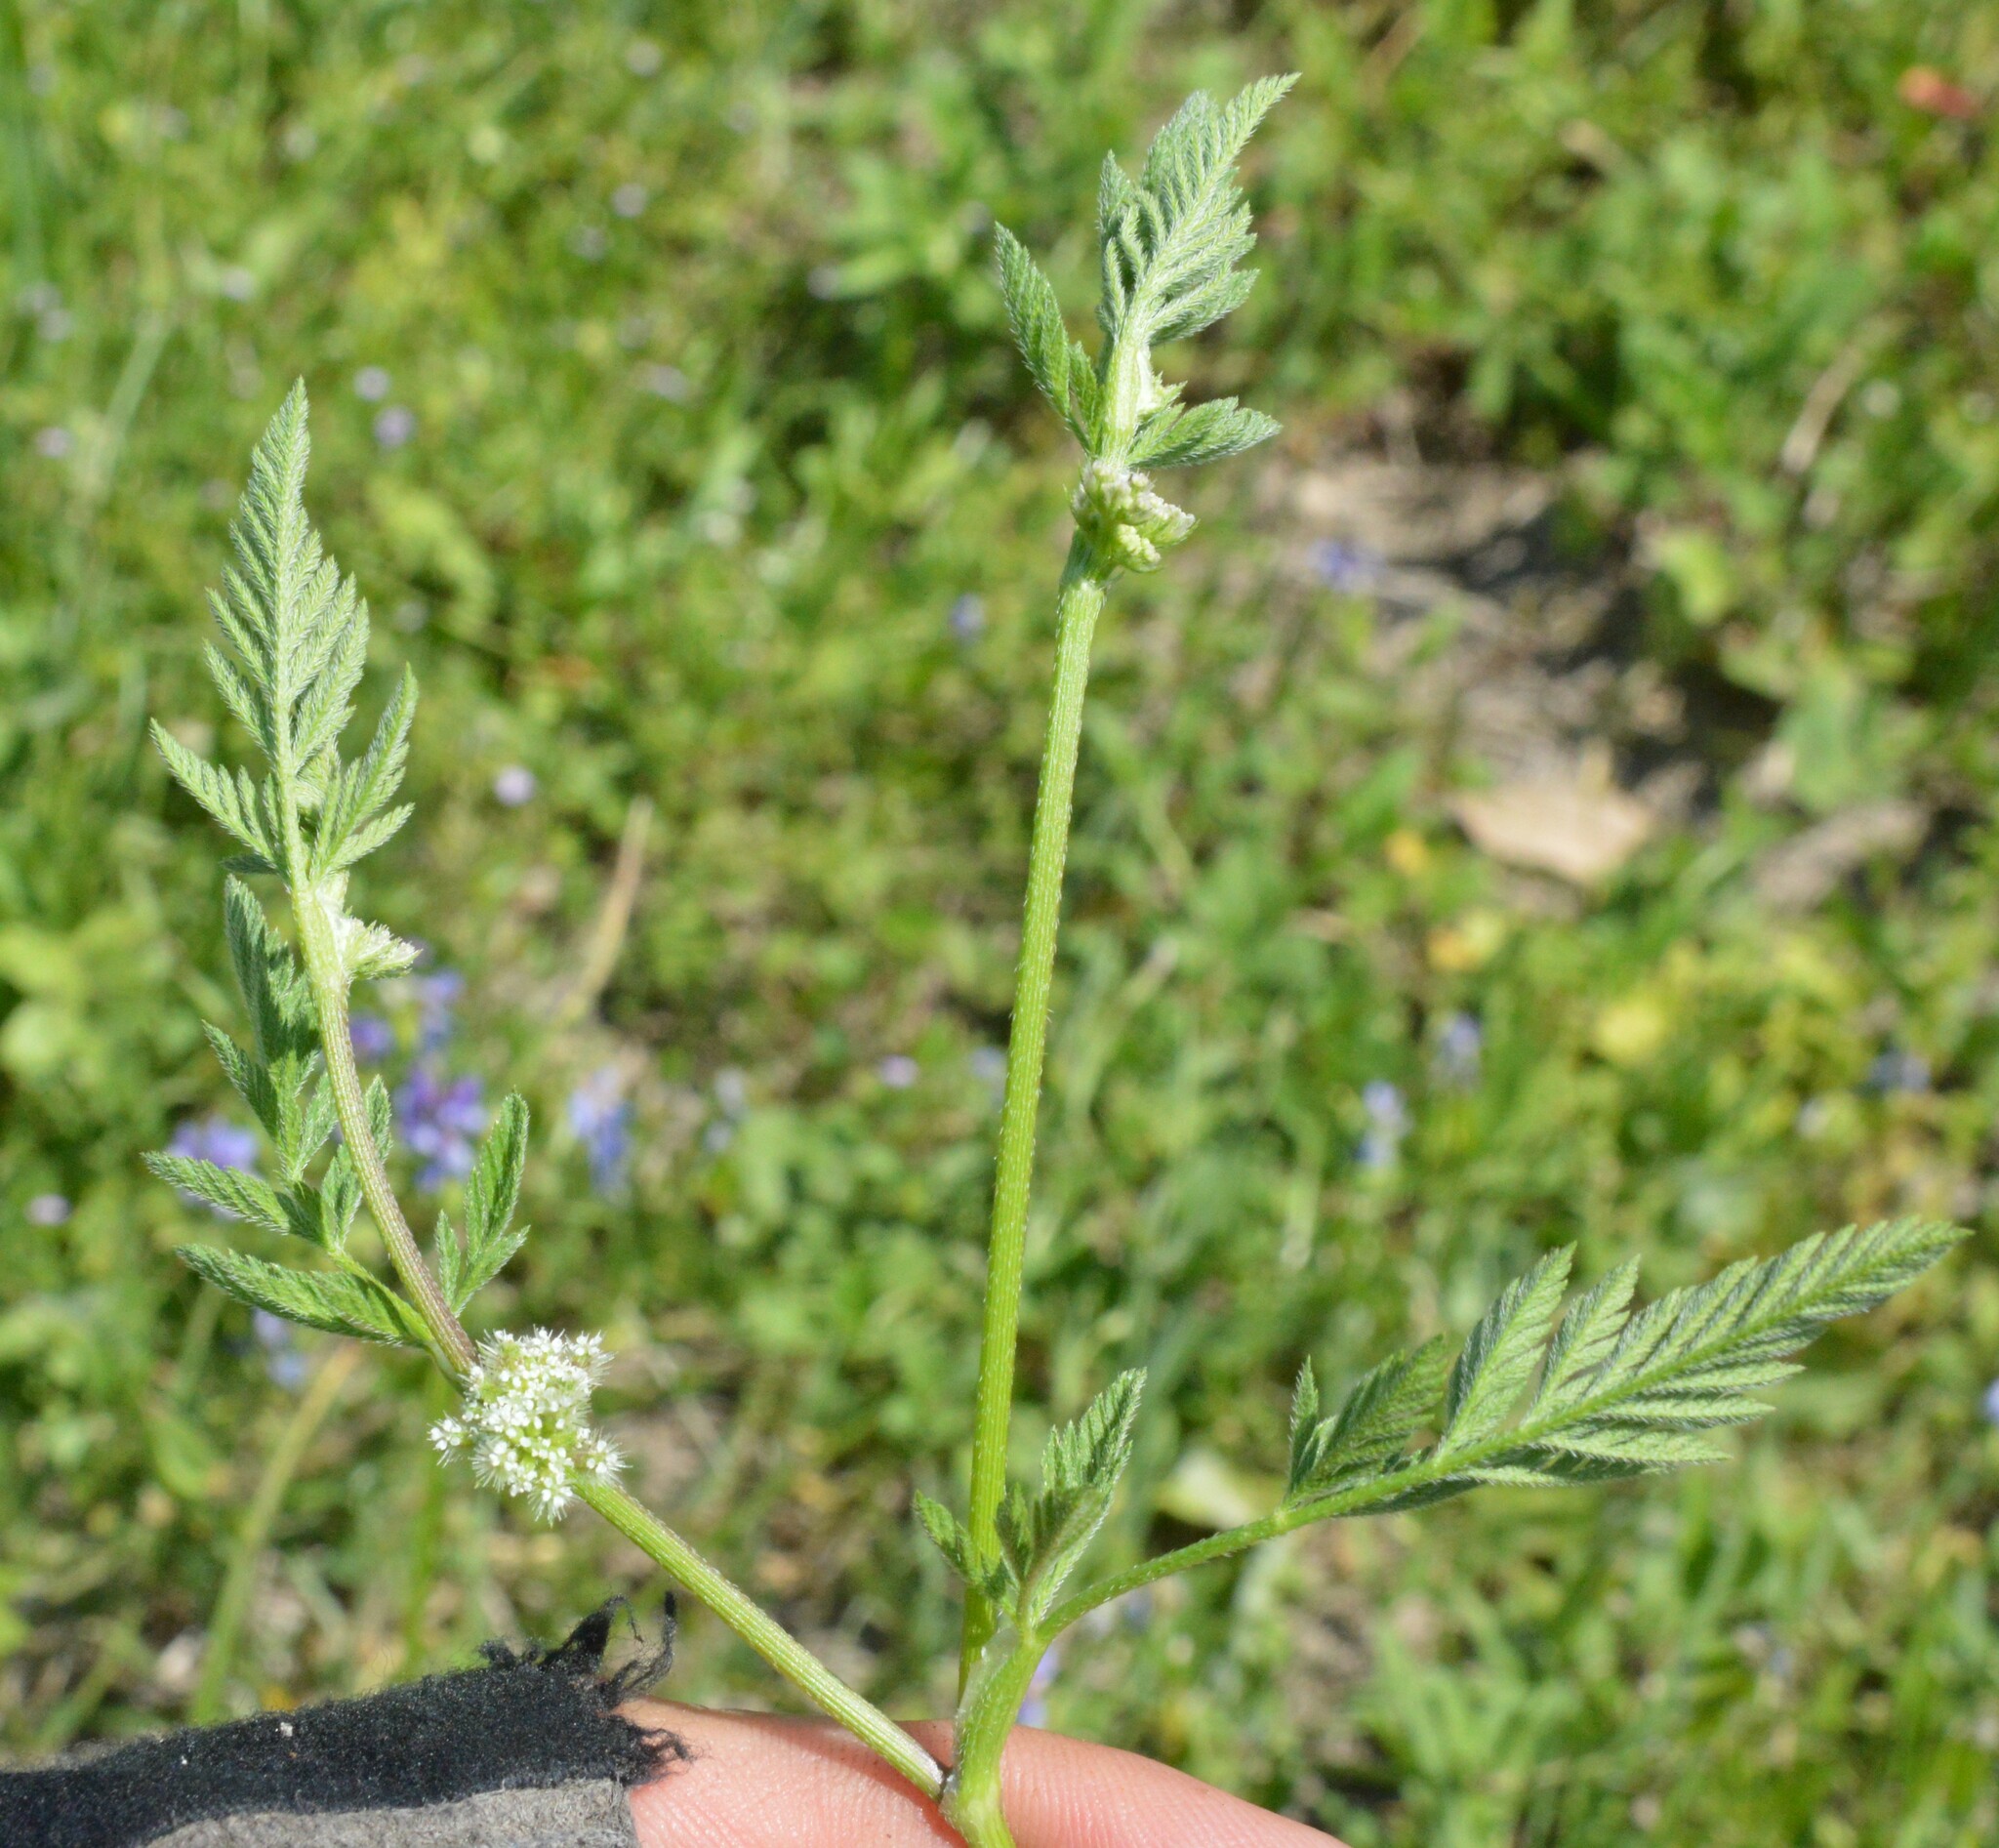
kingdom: Plantae
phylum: Tracheophyta
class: Magnoliopsida
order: Apiales
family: Apiaceae
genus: Torilis
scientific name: Torilis nodosa
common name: Knotted hedge-parsley
